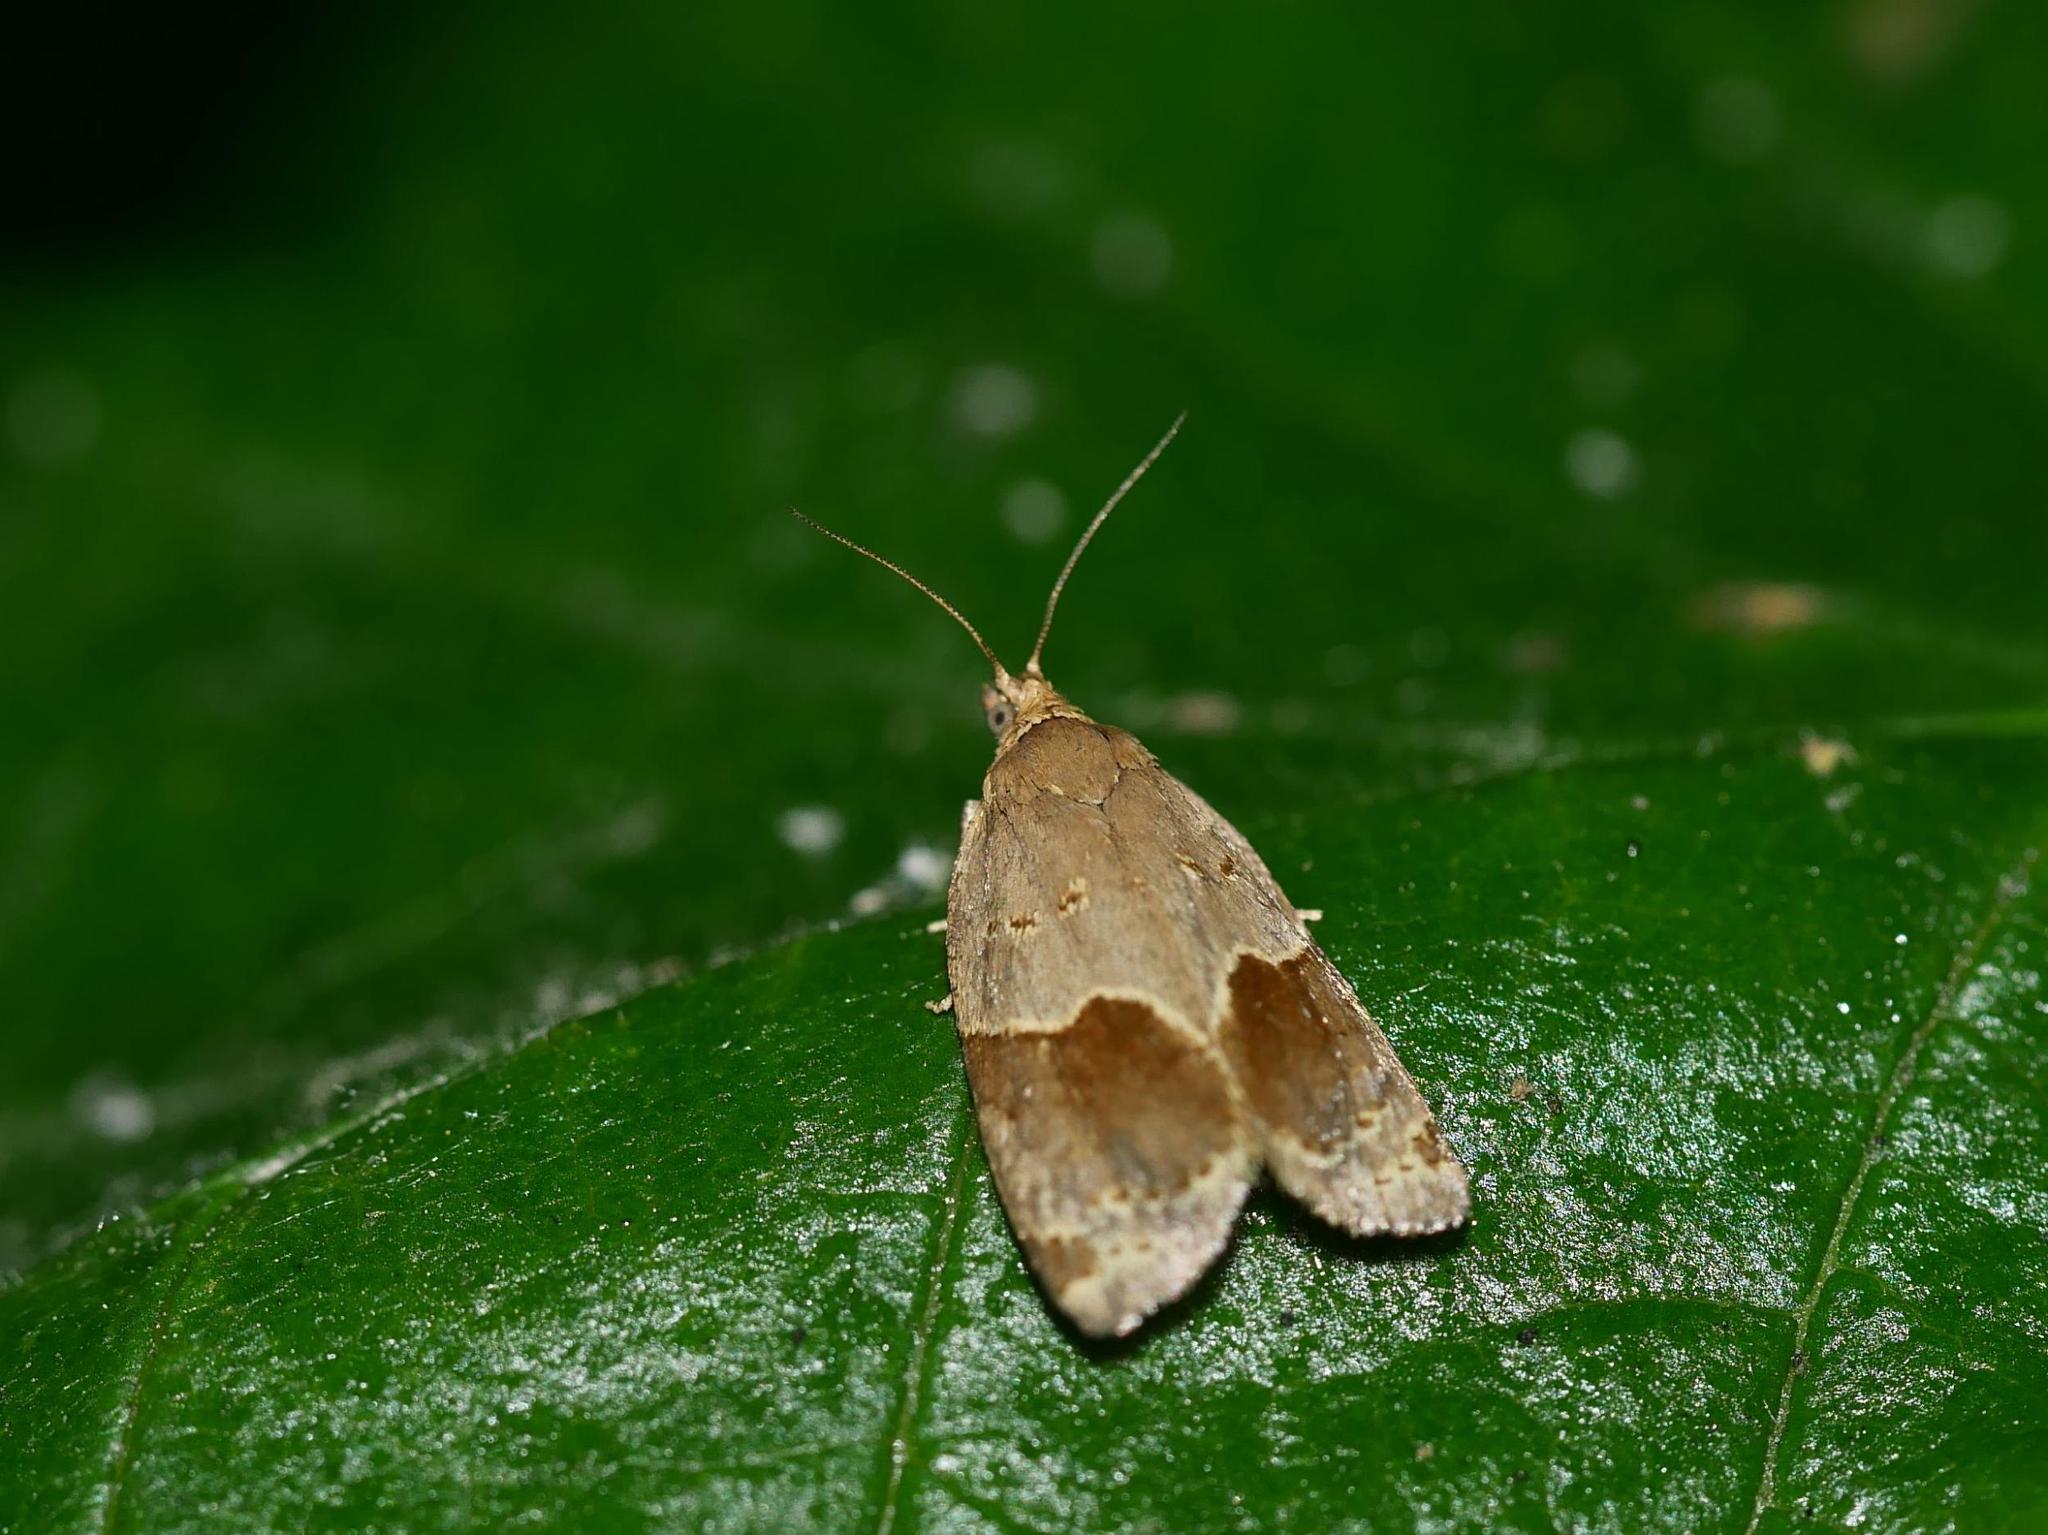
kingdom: Animalia
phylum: Arthropoda
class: Insecta
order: Lepidoptera
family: Tortricidae
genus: Clepsis
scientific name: Clepsis dumicolana
